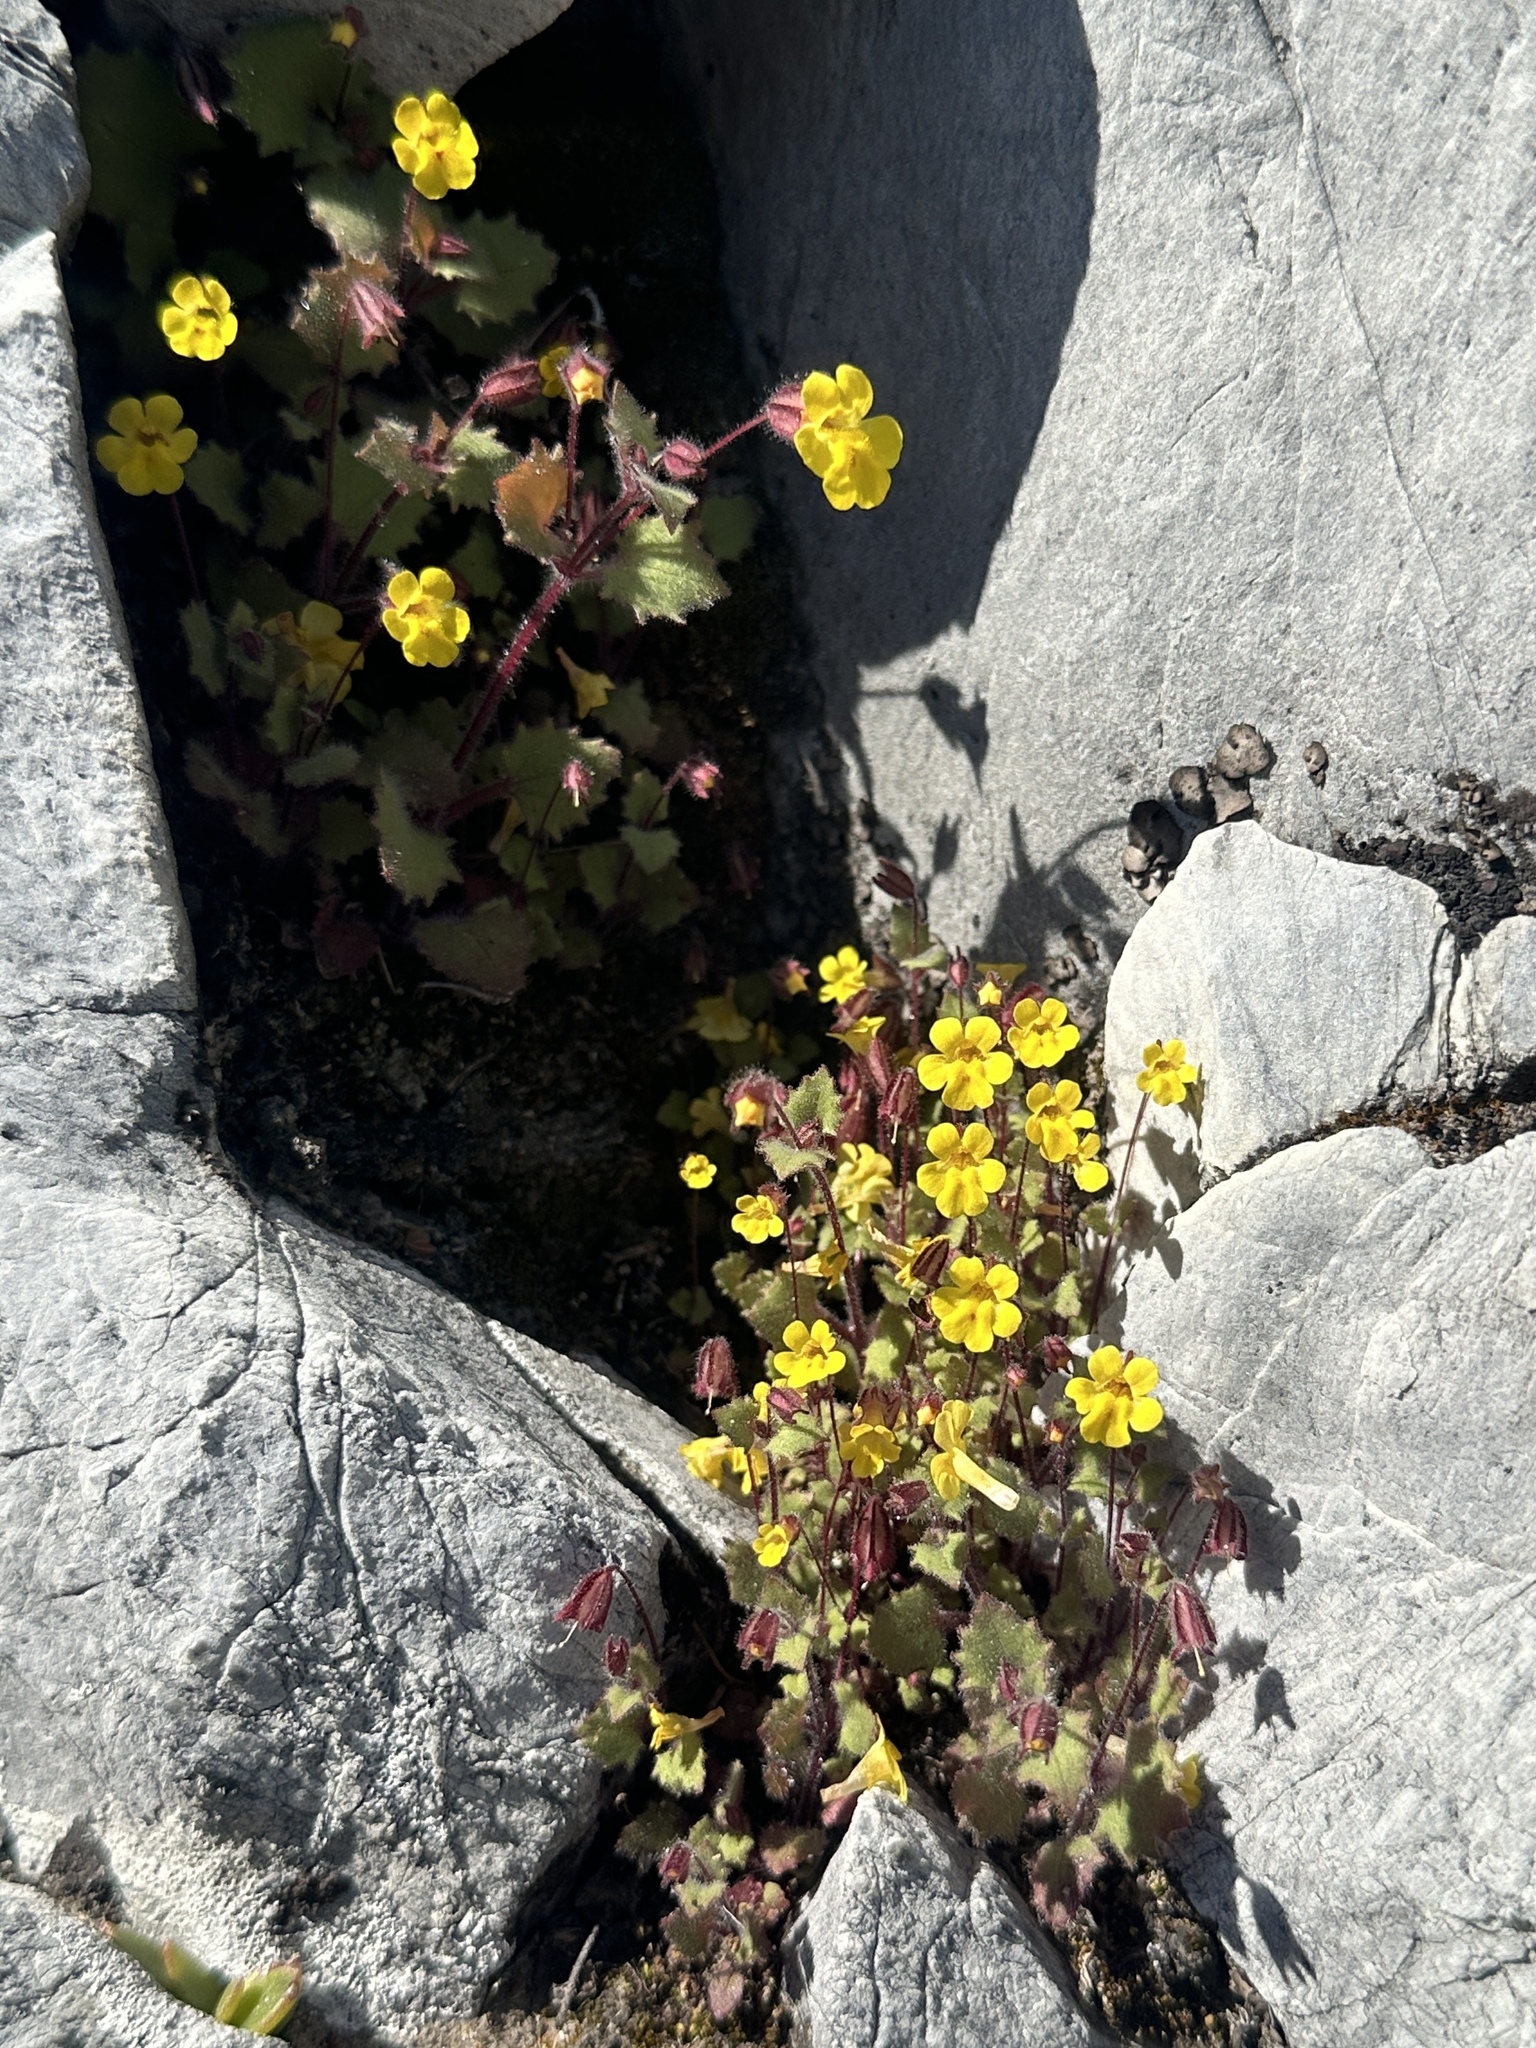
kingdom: Plantae
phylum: Tracheophyta
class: Magnoliopsida
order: Lamiales
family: Phrymaceae
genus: Erythranthe
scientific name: Erythranthe marmorata
